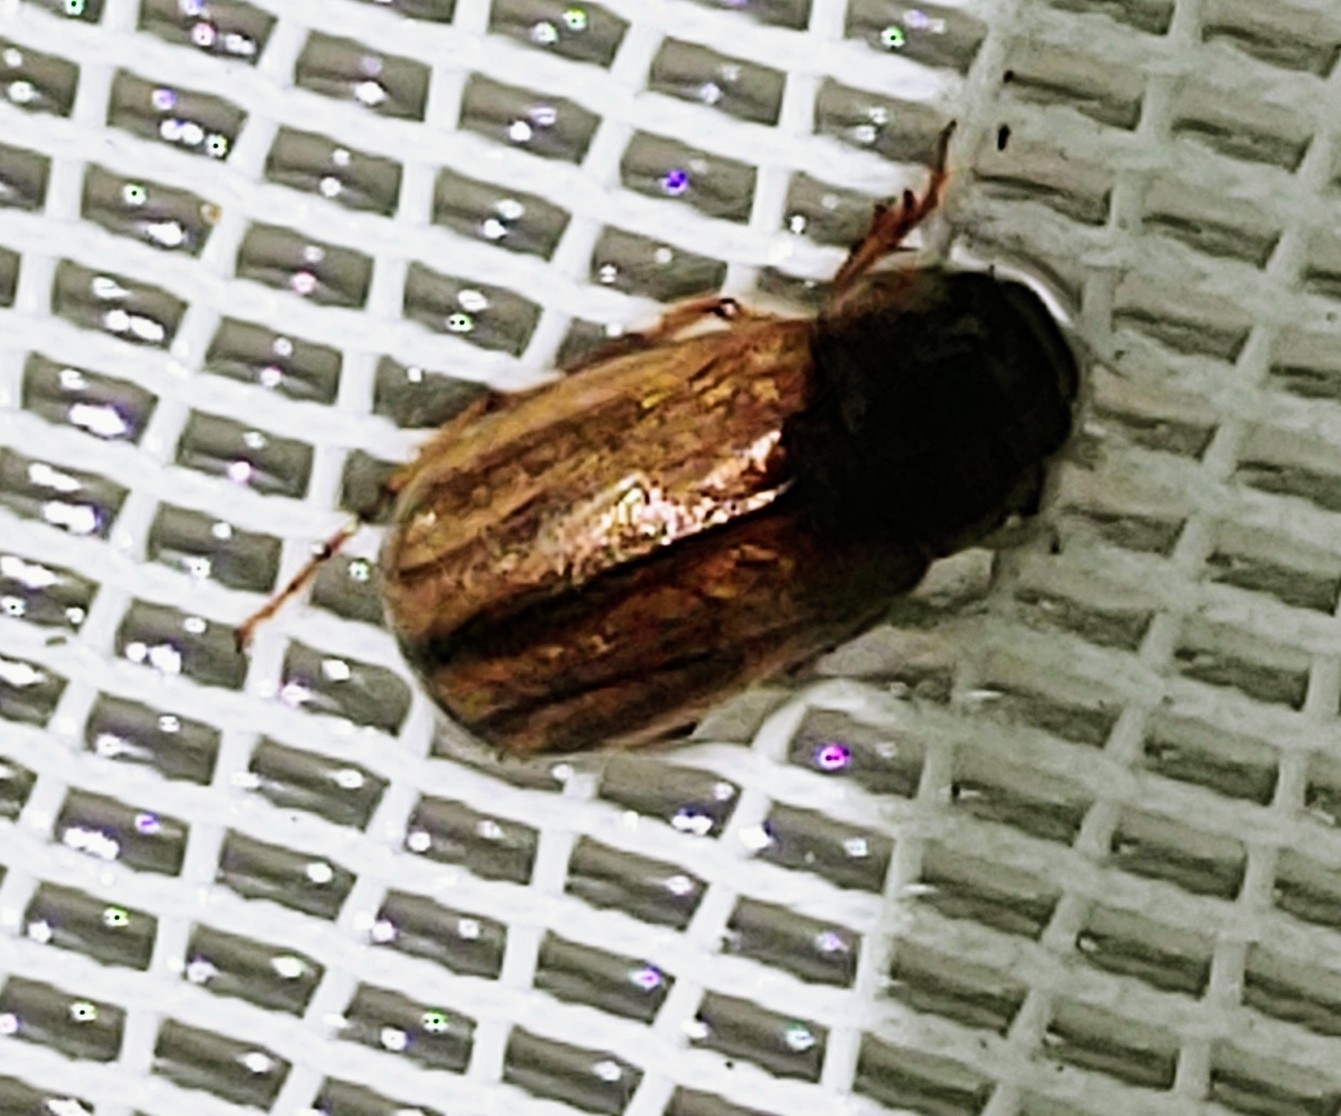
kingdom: Animalia
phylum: Arthropoda
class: Insecta
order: Coleoptera
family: Scarabaeidae
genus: Phyllophaga
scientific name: Phyllophaga bruneri
